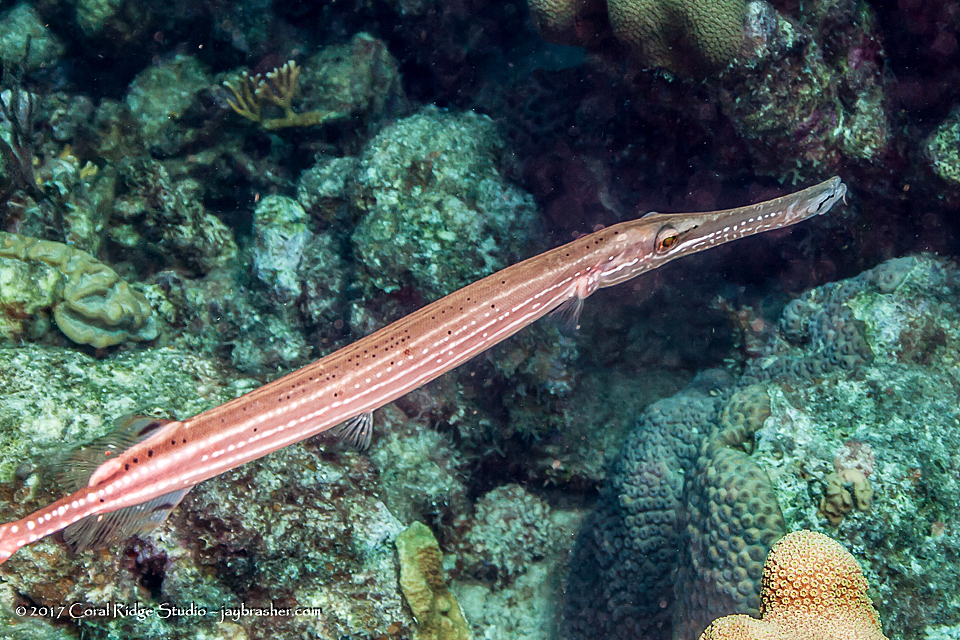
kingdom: Animalia
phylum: Chordata
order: Syngnathiformes
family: Aulostomidae
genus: Aulostomus
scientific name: Aulostomus maculatus
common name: West atlantic trumpetfish
